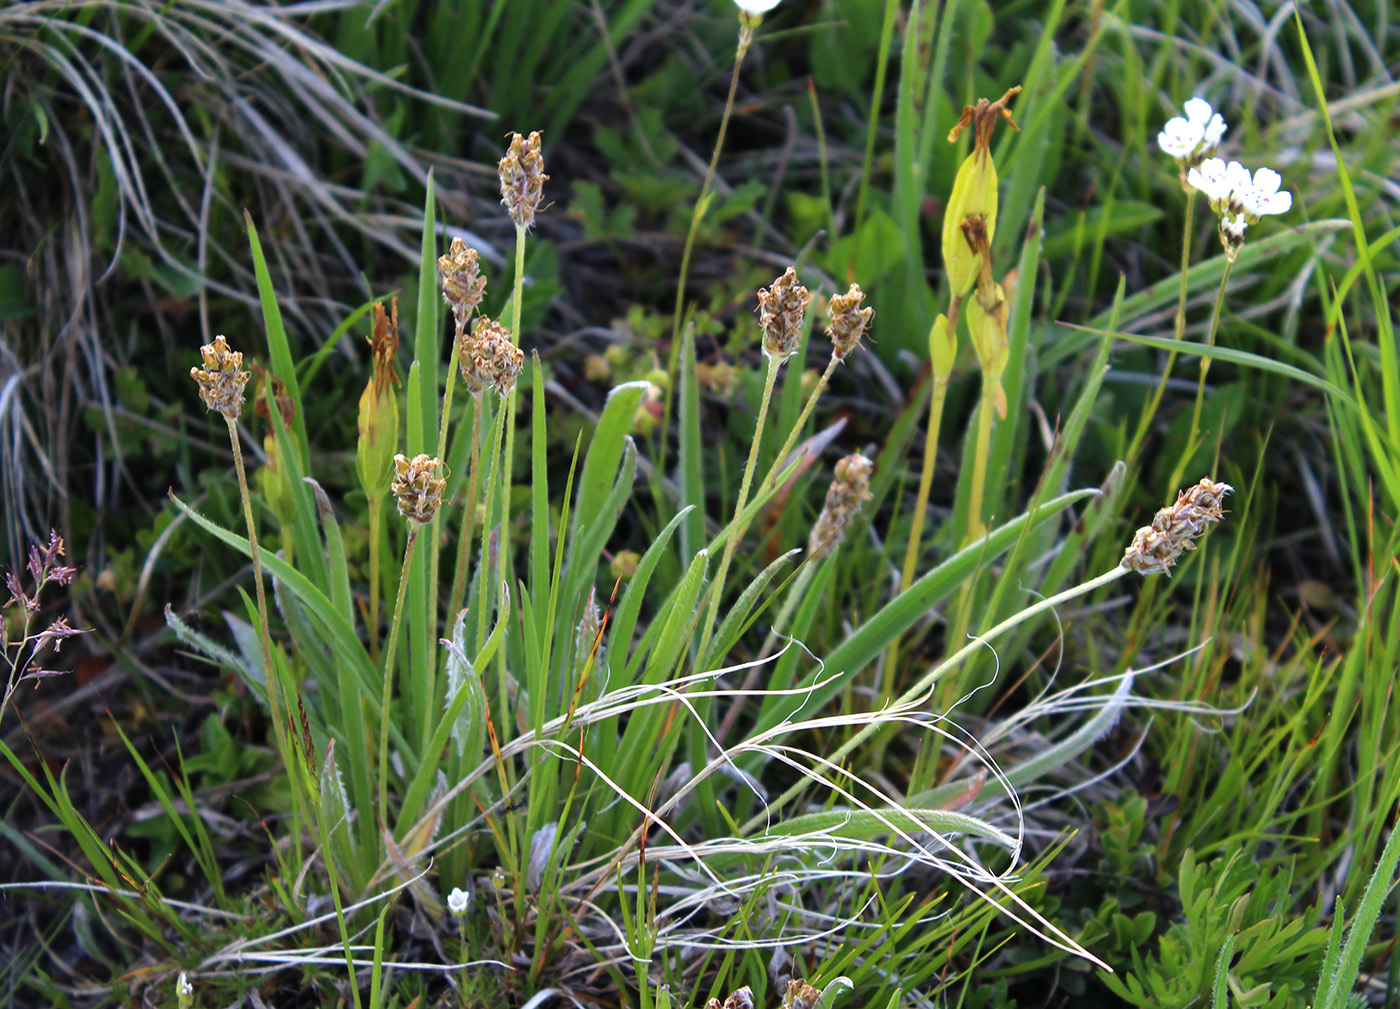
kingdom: Plantae
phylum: Tracheophyta
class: Magnoliopsida
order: Lamiales
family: Plantaginaceae
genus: Plantago
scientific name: Plantago atrata
